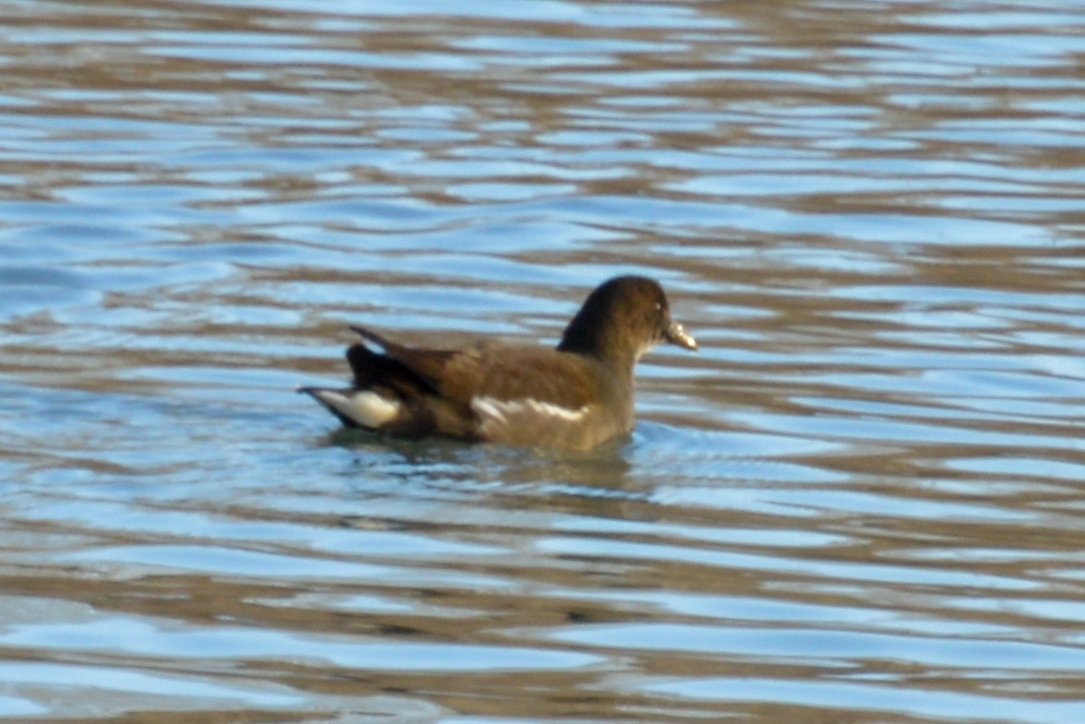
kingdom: Animalia
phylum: Chordata
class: Aves
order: Gruiformes
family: Rallidae
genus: Gallinula
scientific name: Gallinula chloropus
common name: Common moorhen
